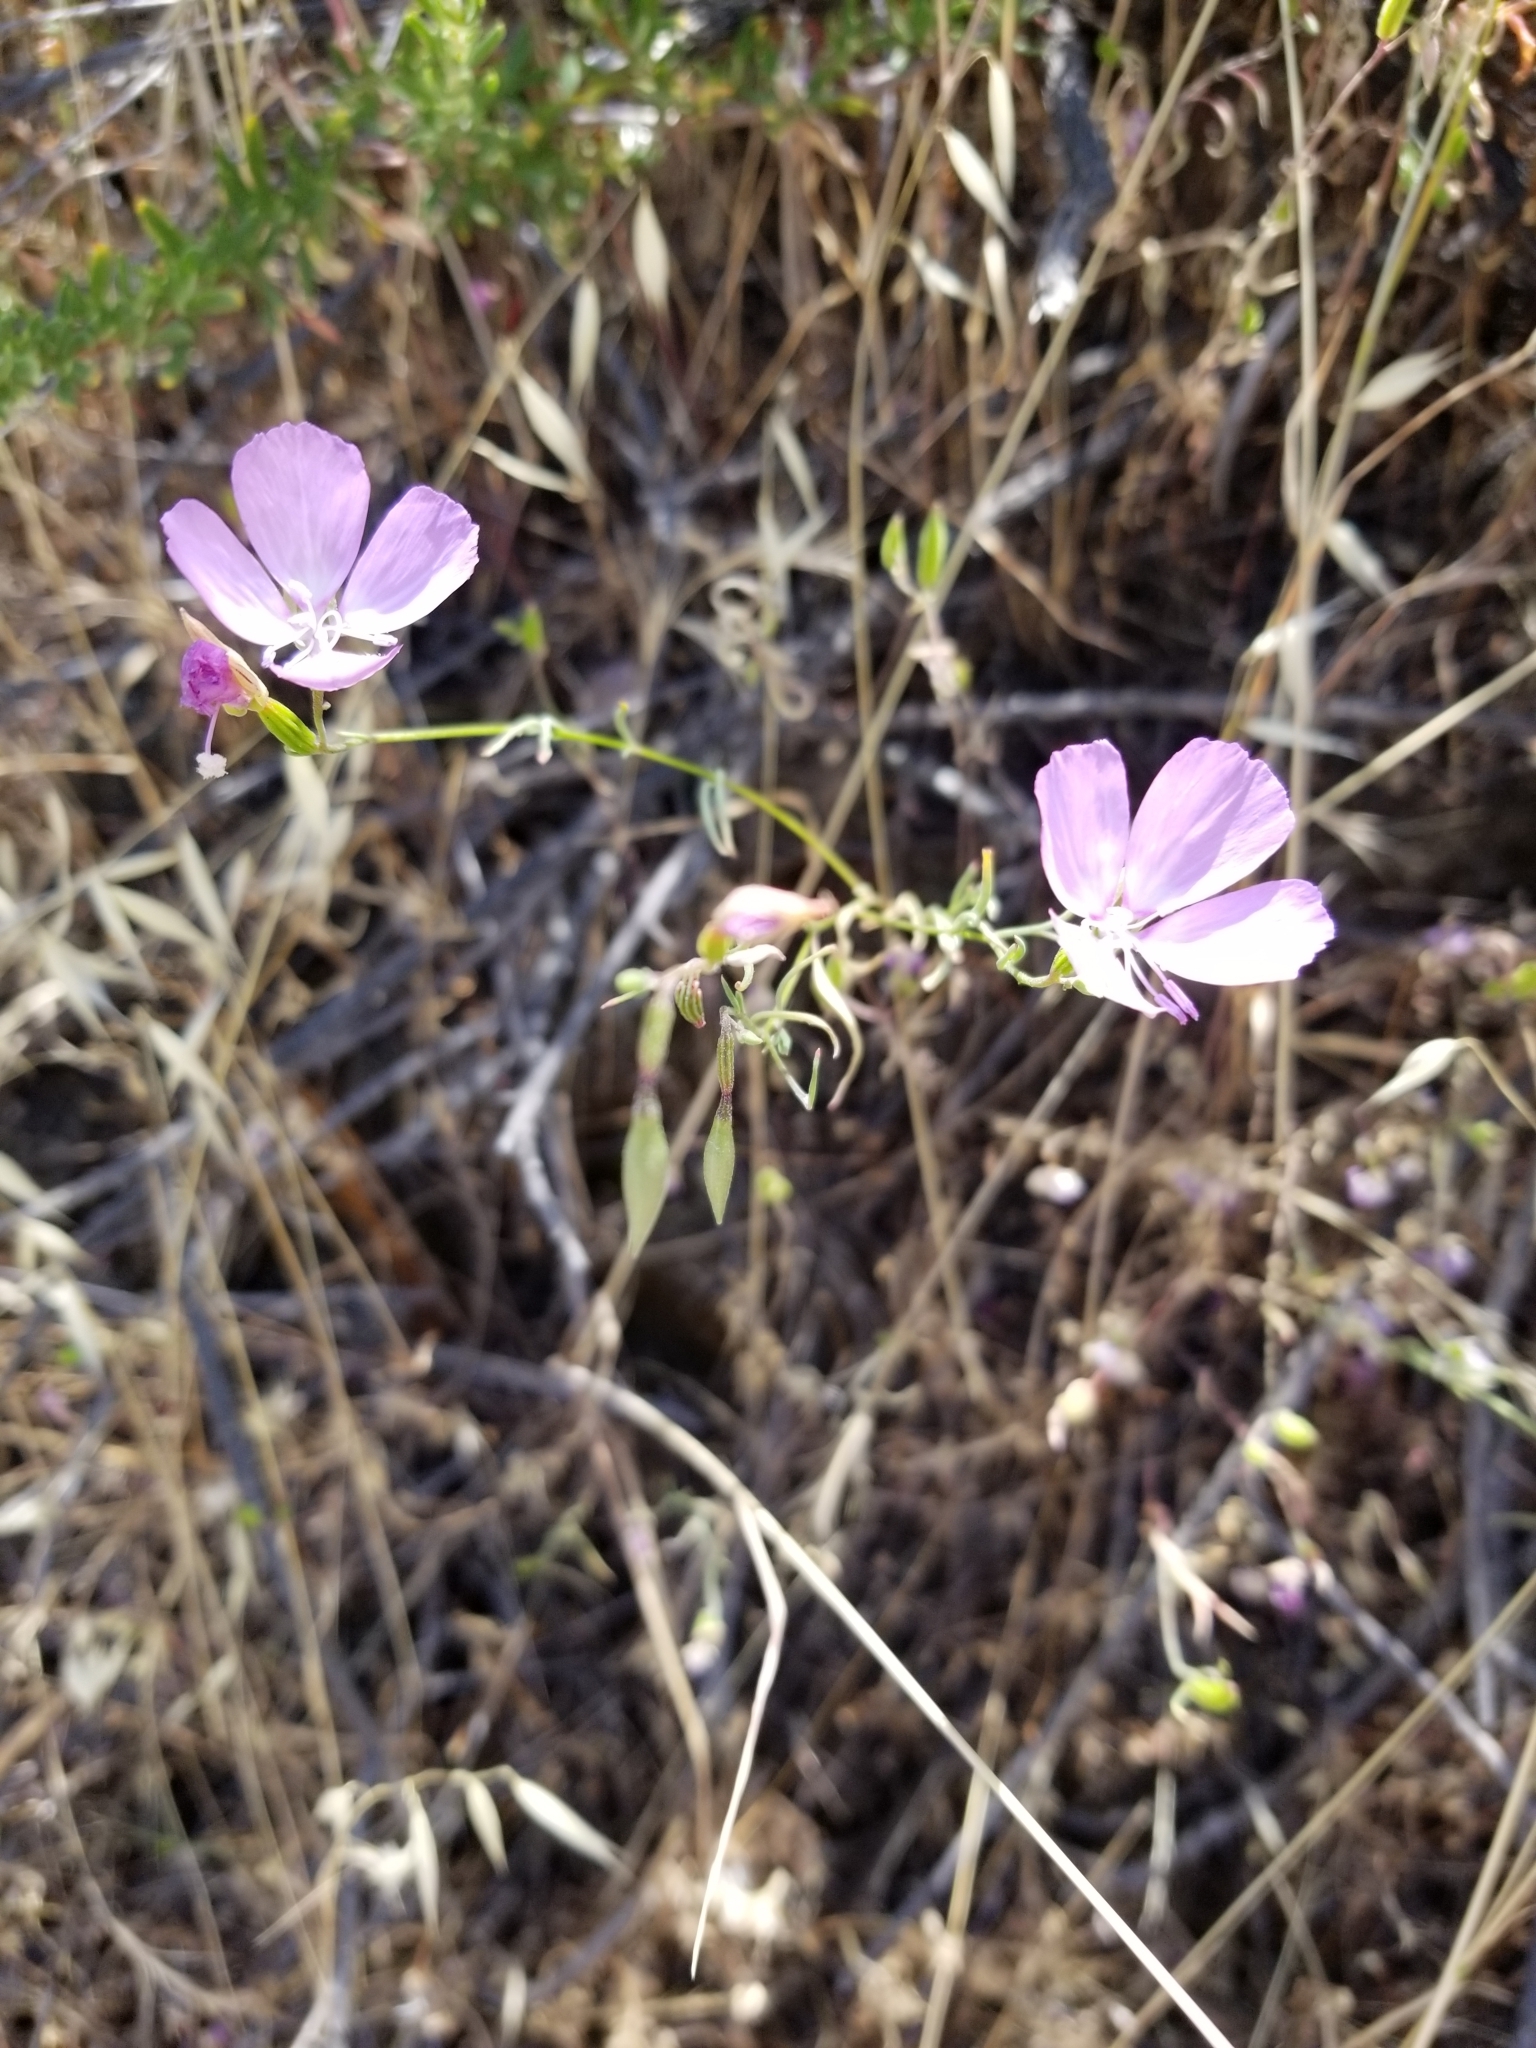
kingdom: Plantae
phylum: Tracheophyta
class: Magnoliopsida
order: Myrtales
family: Onagraceae
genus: Clarkia
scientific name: Clarkia gracilis
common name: Graceful clarkia
